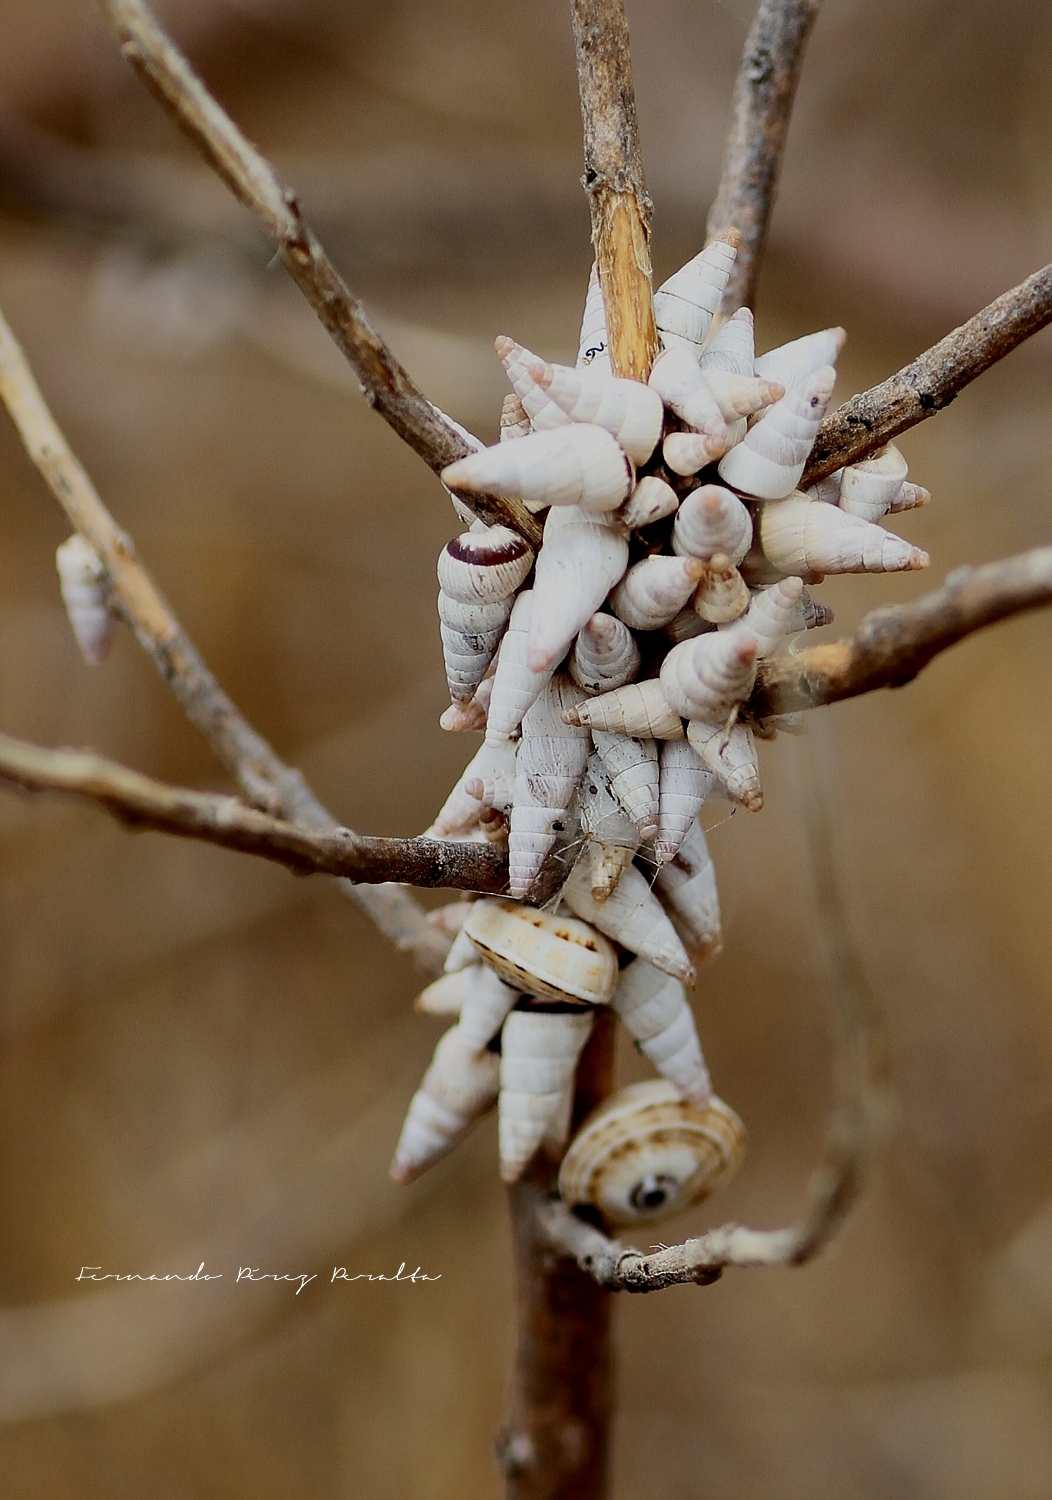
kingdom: Animalia
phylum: Mollusca
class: Gastropoda
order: Stylommatophora
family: Geomitridae
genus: Cochlicella
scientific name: Cochlicella acuta
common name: Pointed snail
